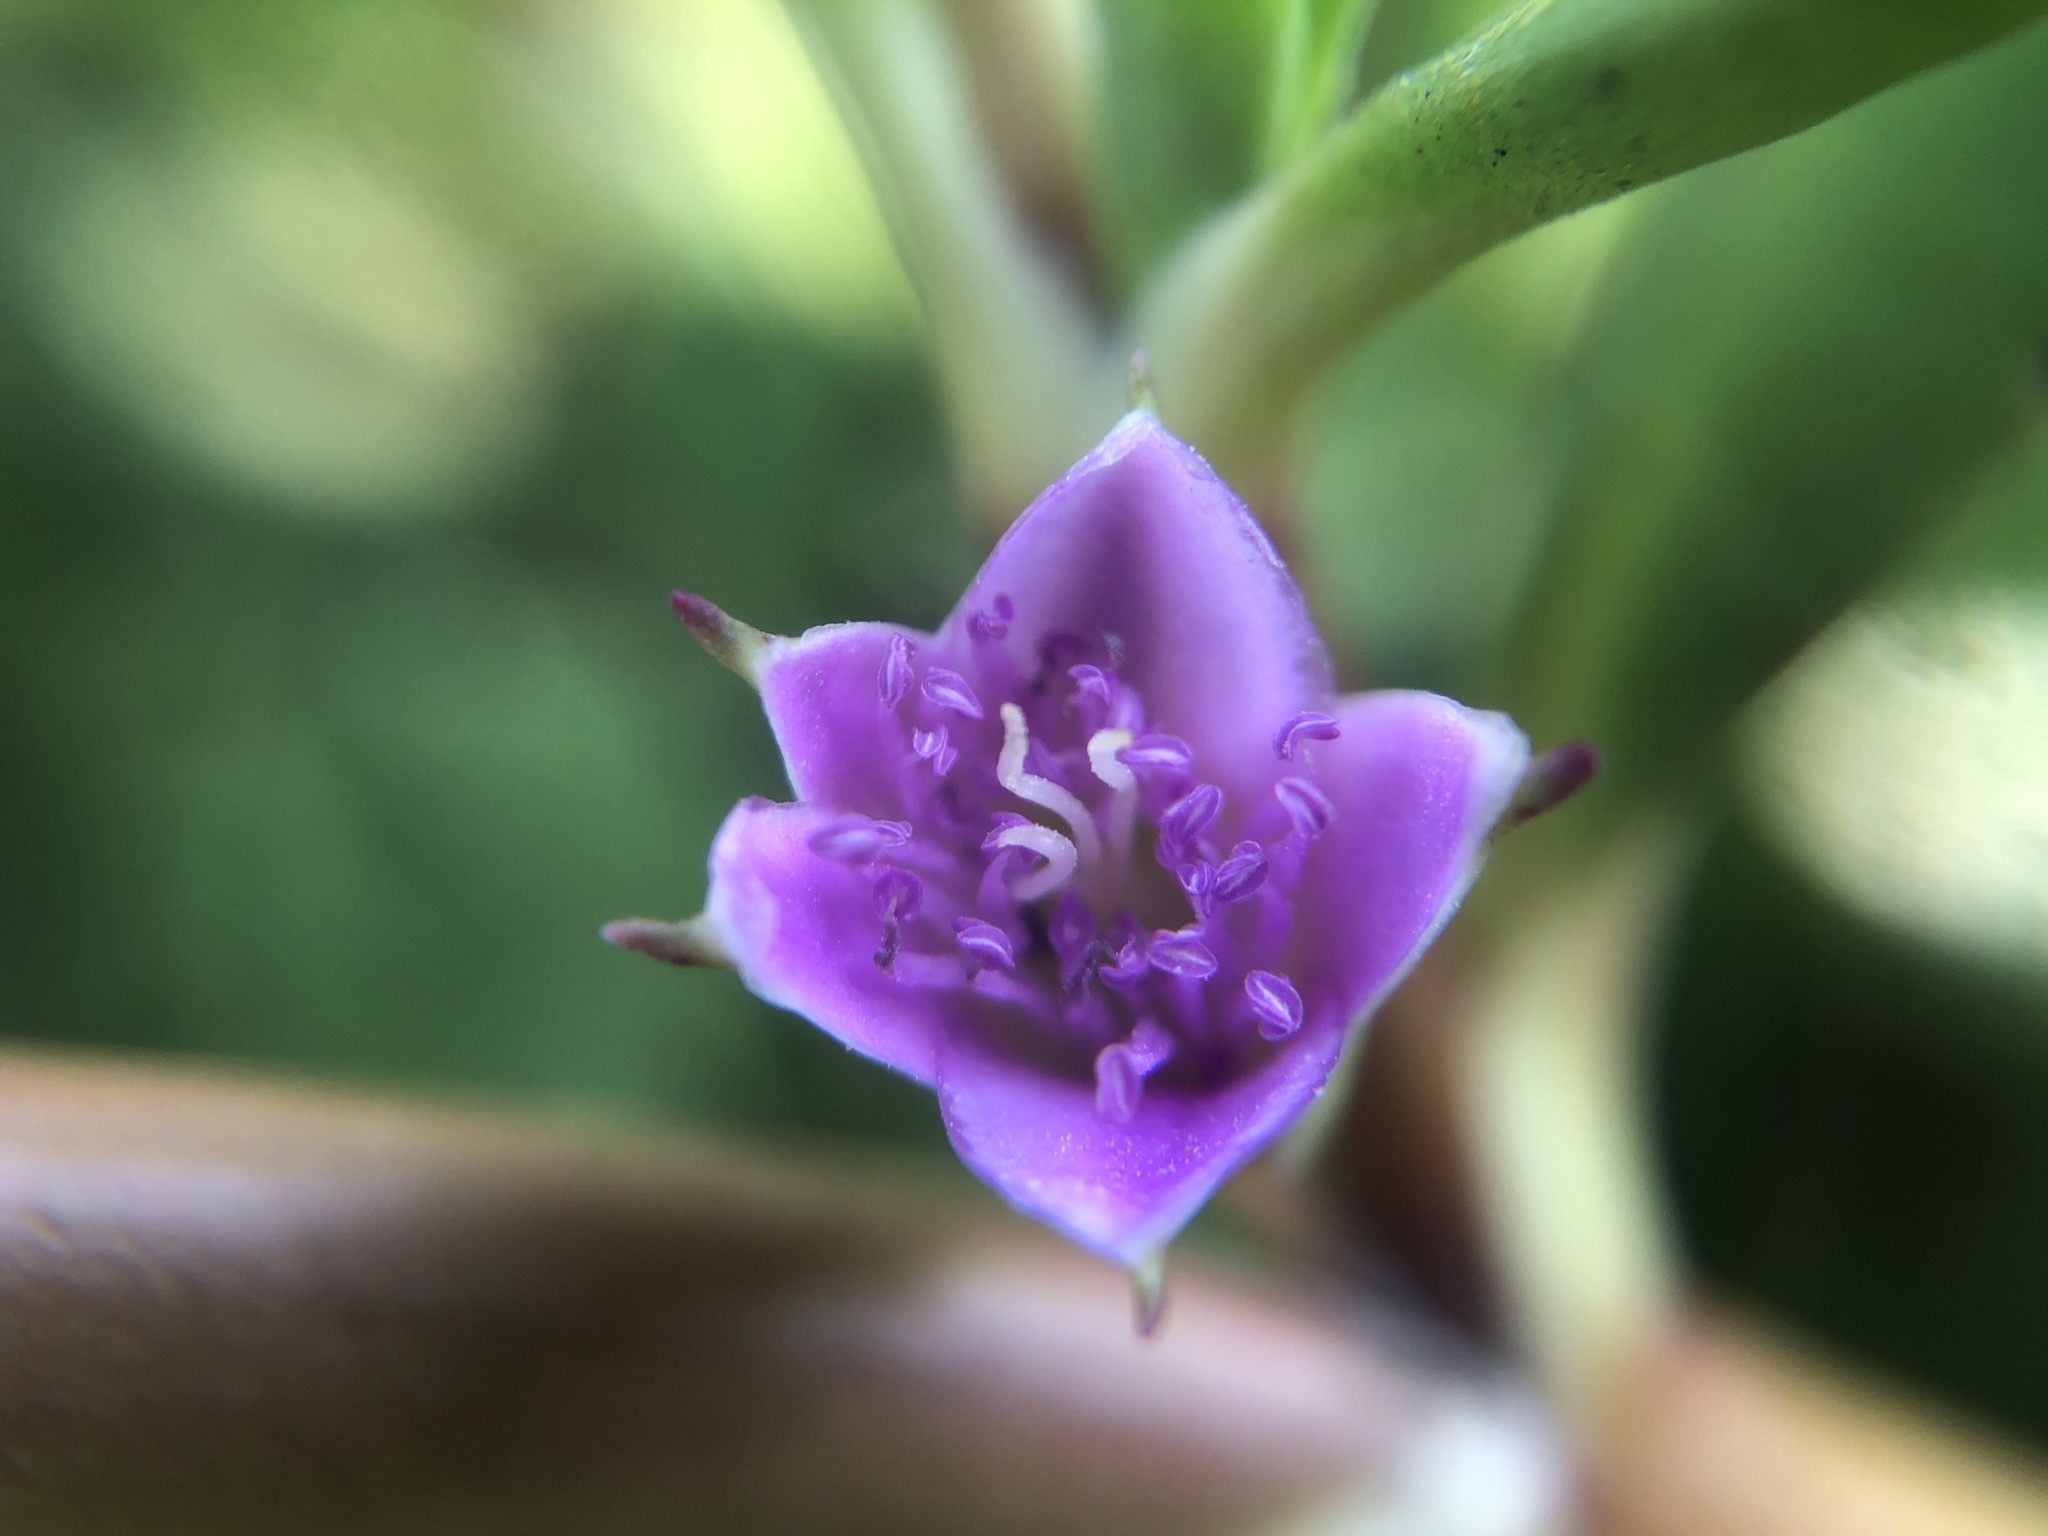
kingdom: Plantae
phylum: Tracheophyta
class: Magnoliopsida
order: Caryophyllales
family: Aizoaceae
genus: Sesuvium
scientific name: Sesuvium portulacastrum
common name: Sea-purslane
